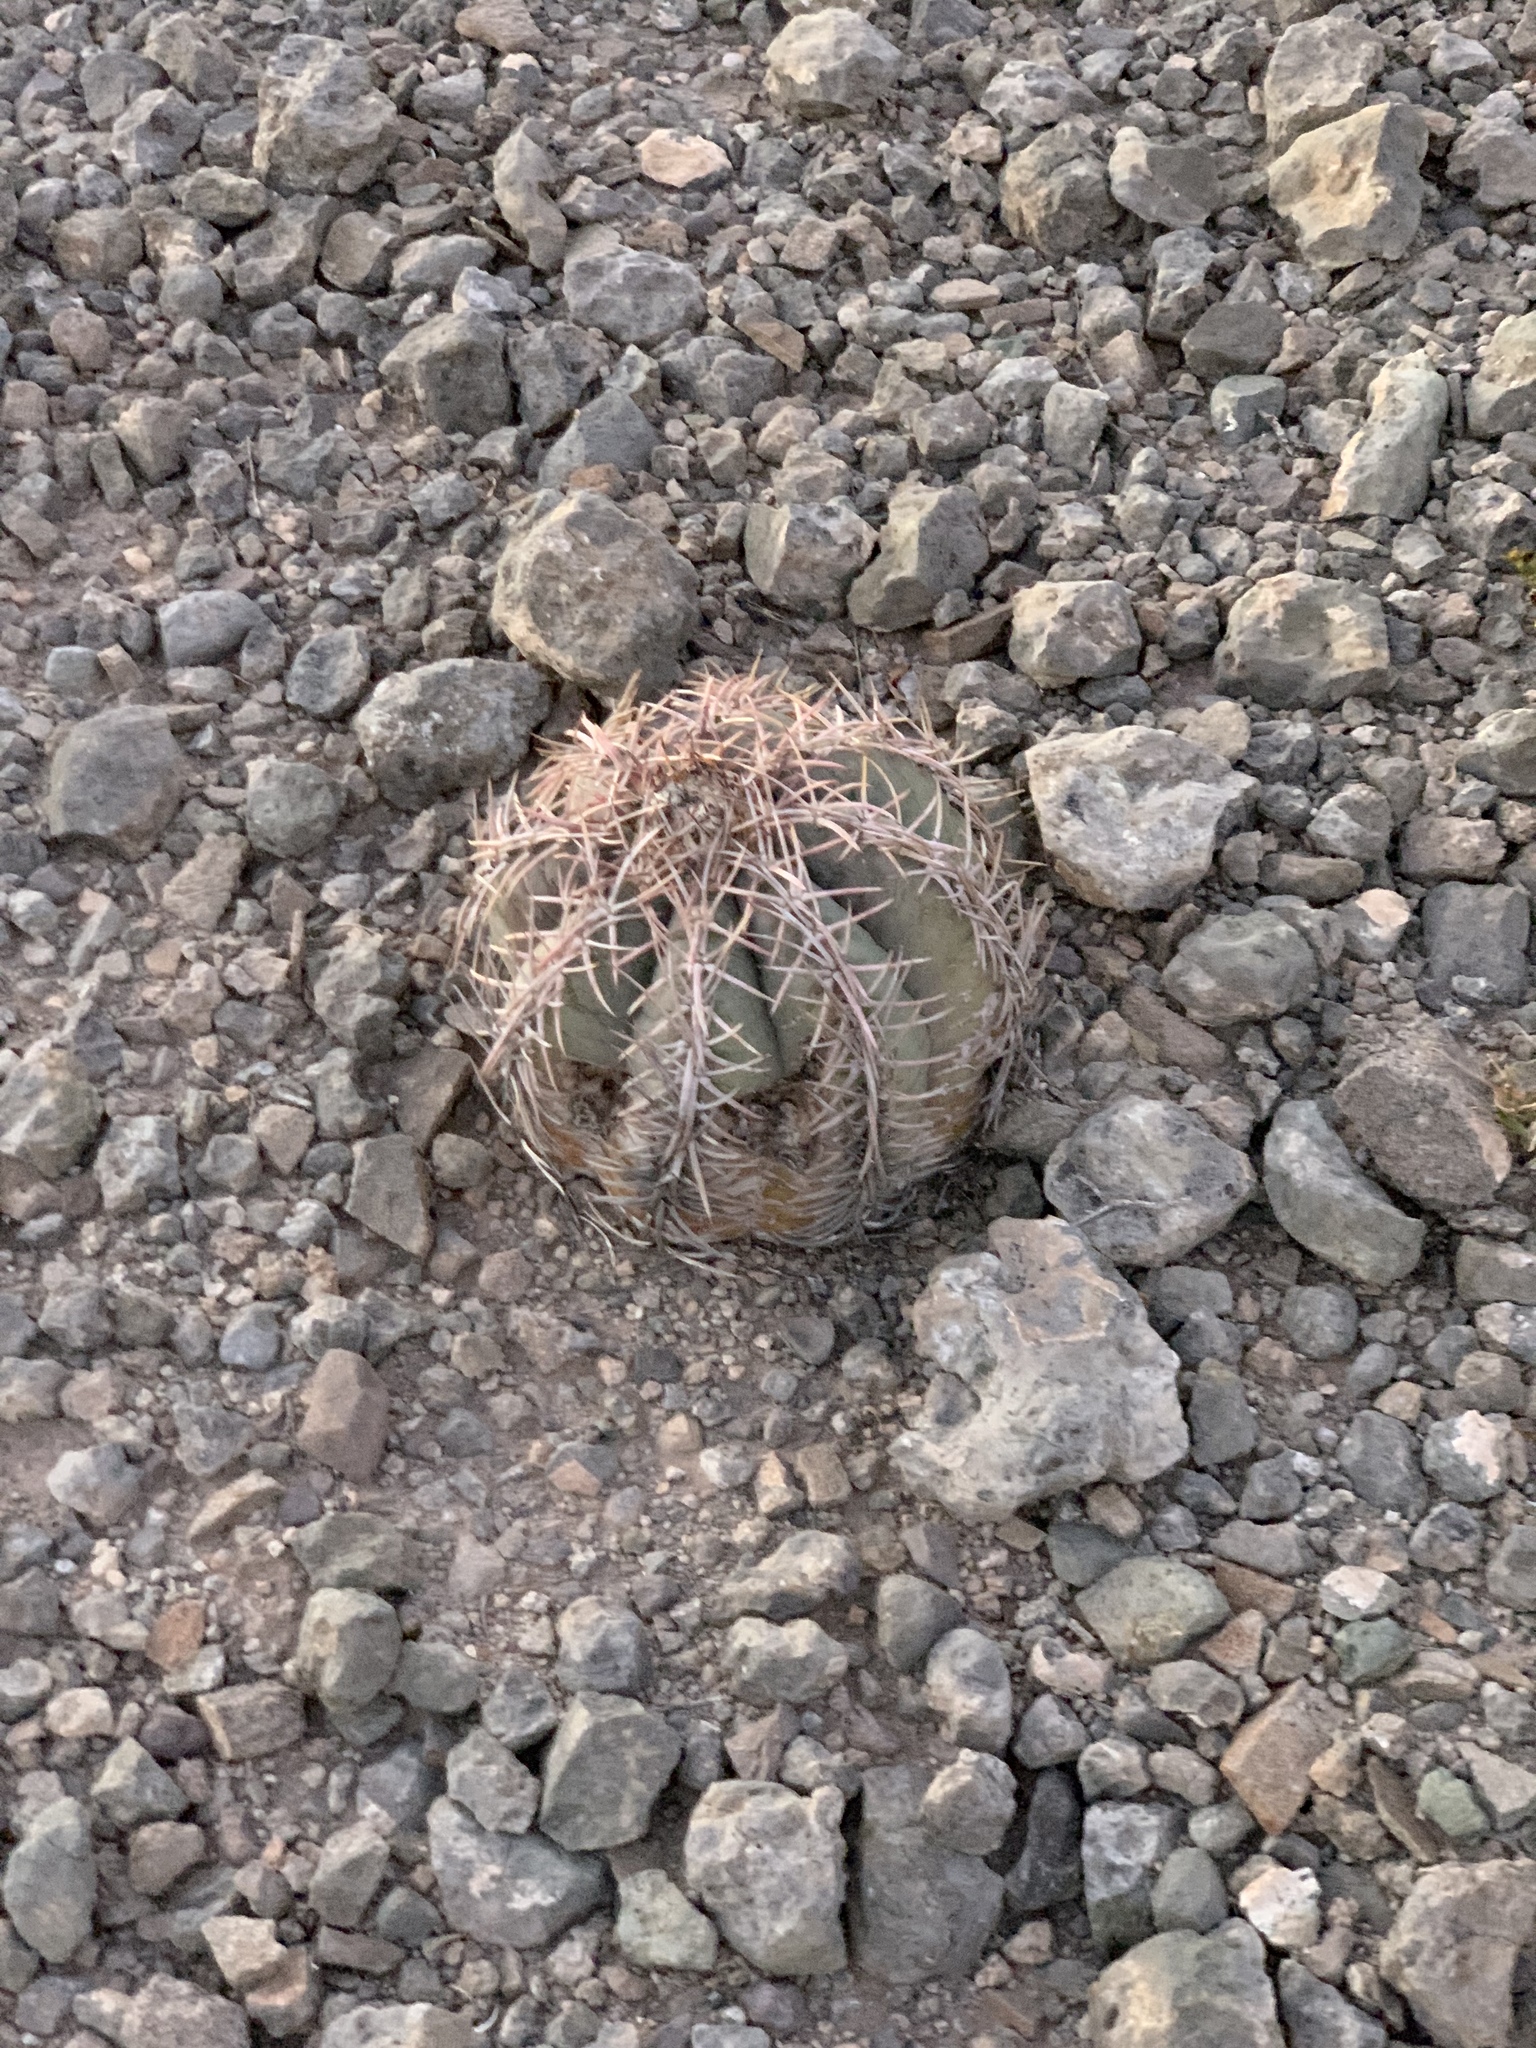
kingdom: Plantae
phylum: Tracheophyta
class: Magnoliopsida
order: Caryophyllales
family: Cactaceae
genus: Echinocactus
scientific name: Echinocactus horizonthalonius
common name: Devilshead
